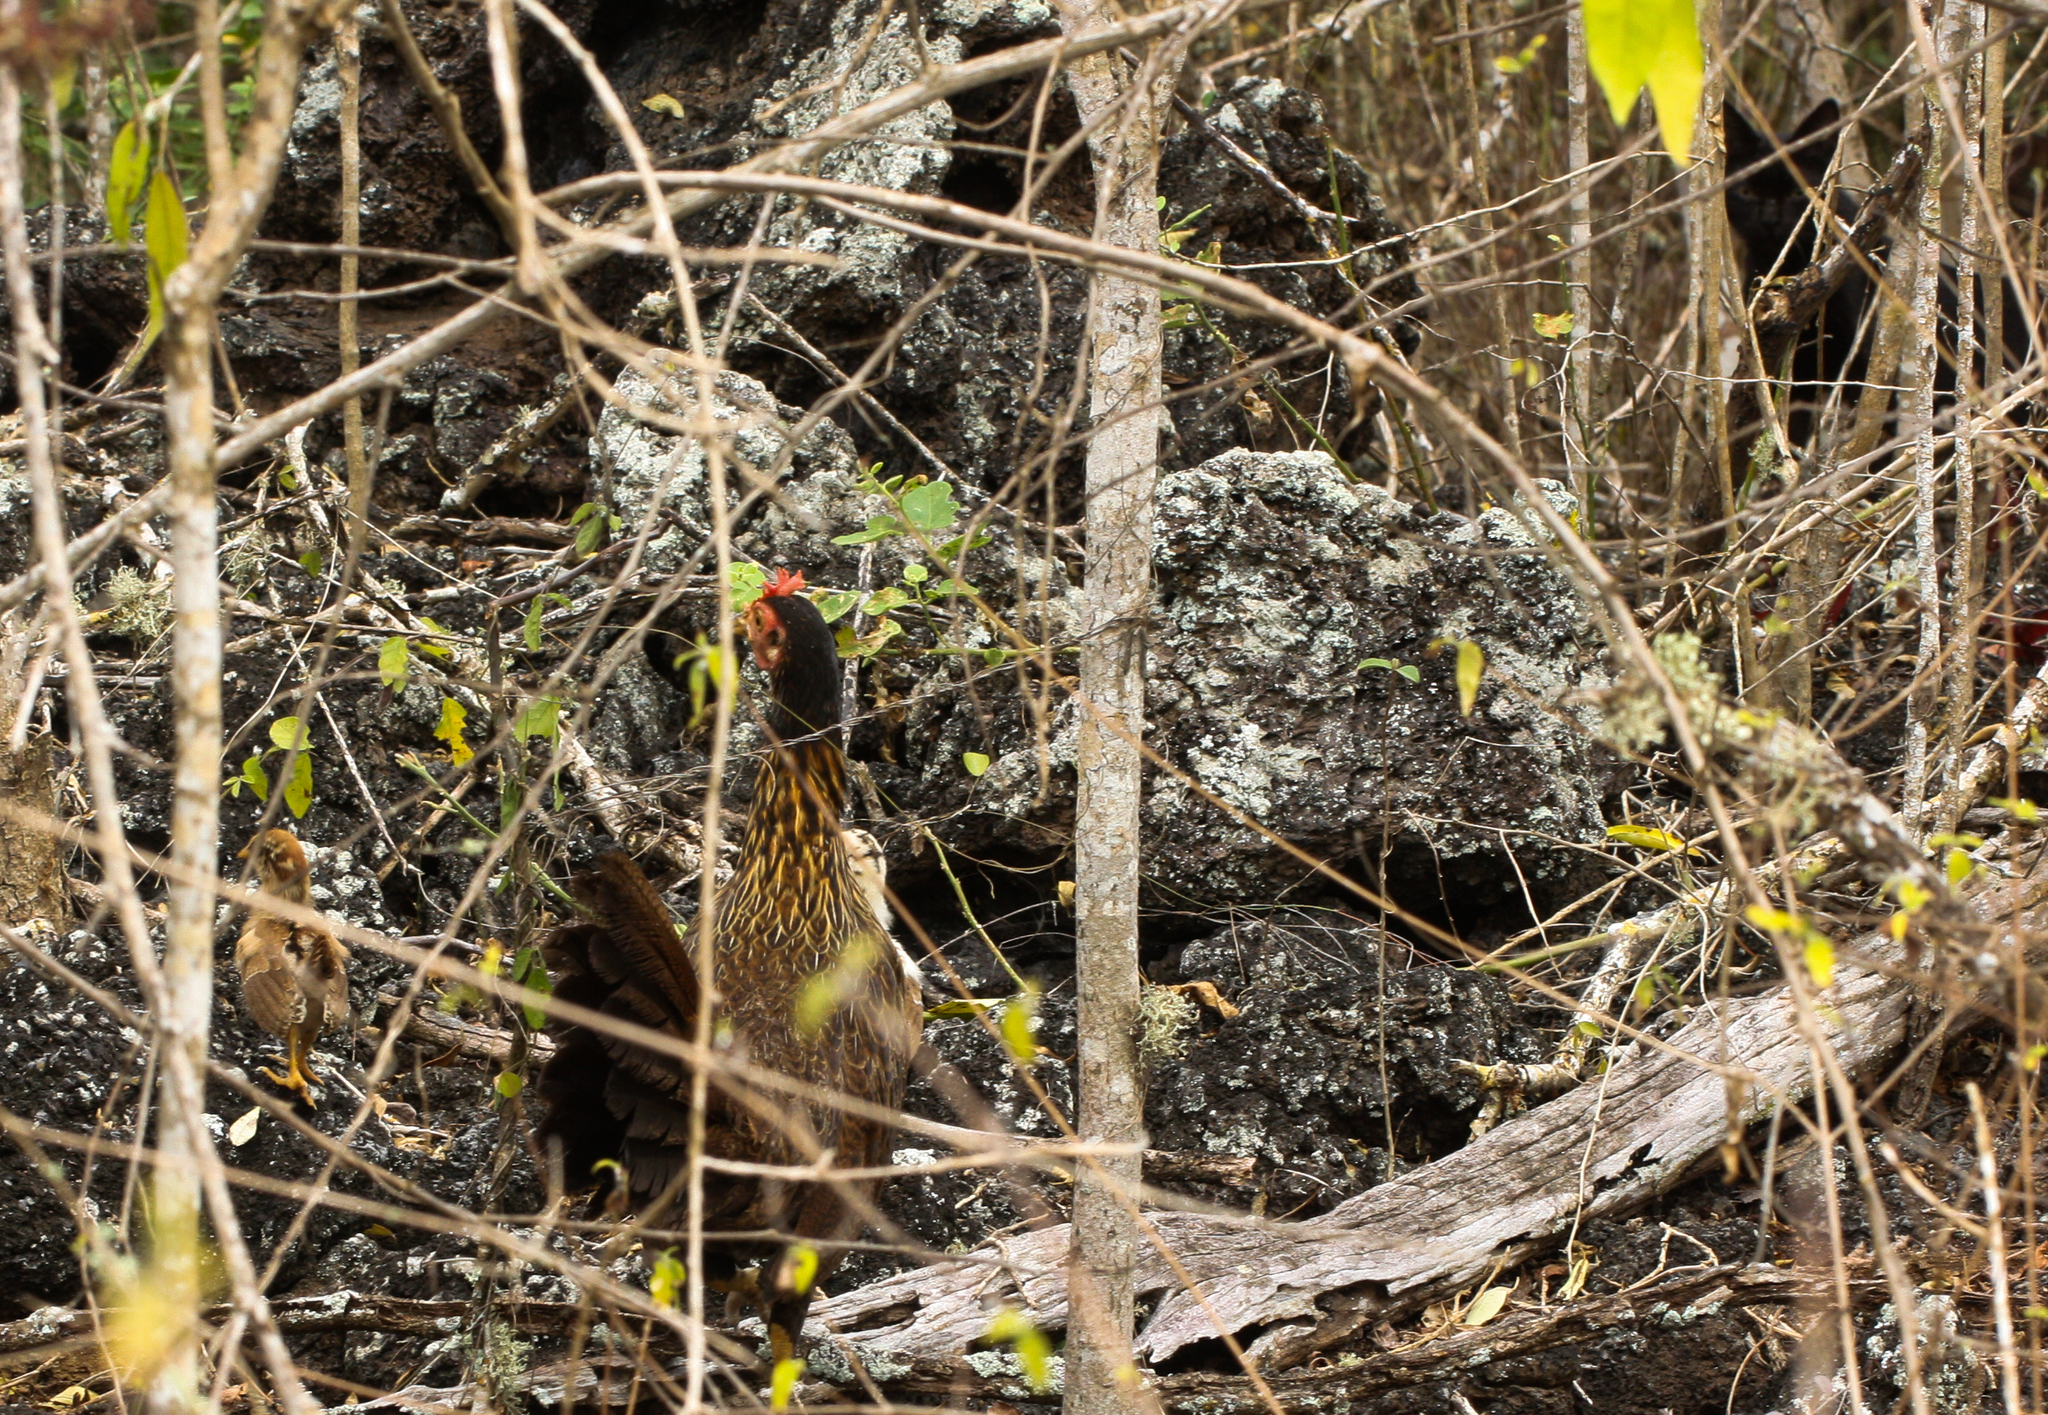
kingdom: Animalia
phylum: Chordata
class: Aves
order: Galliformes
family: Phasianidae
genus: Gallus
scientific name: Gallus gallus
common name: Red junglefowl
